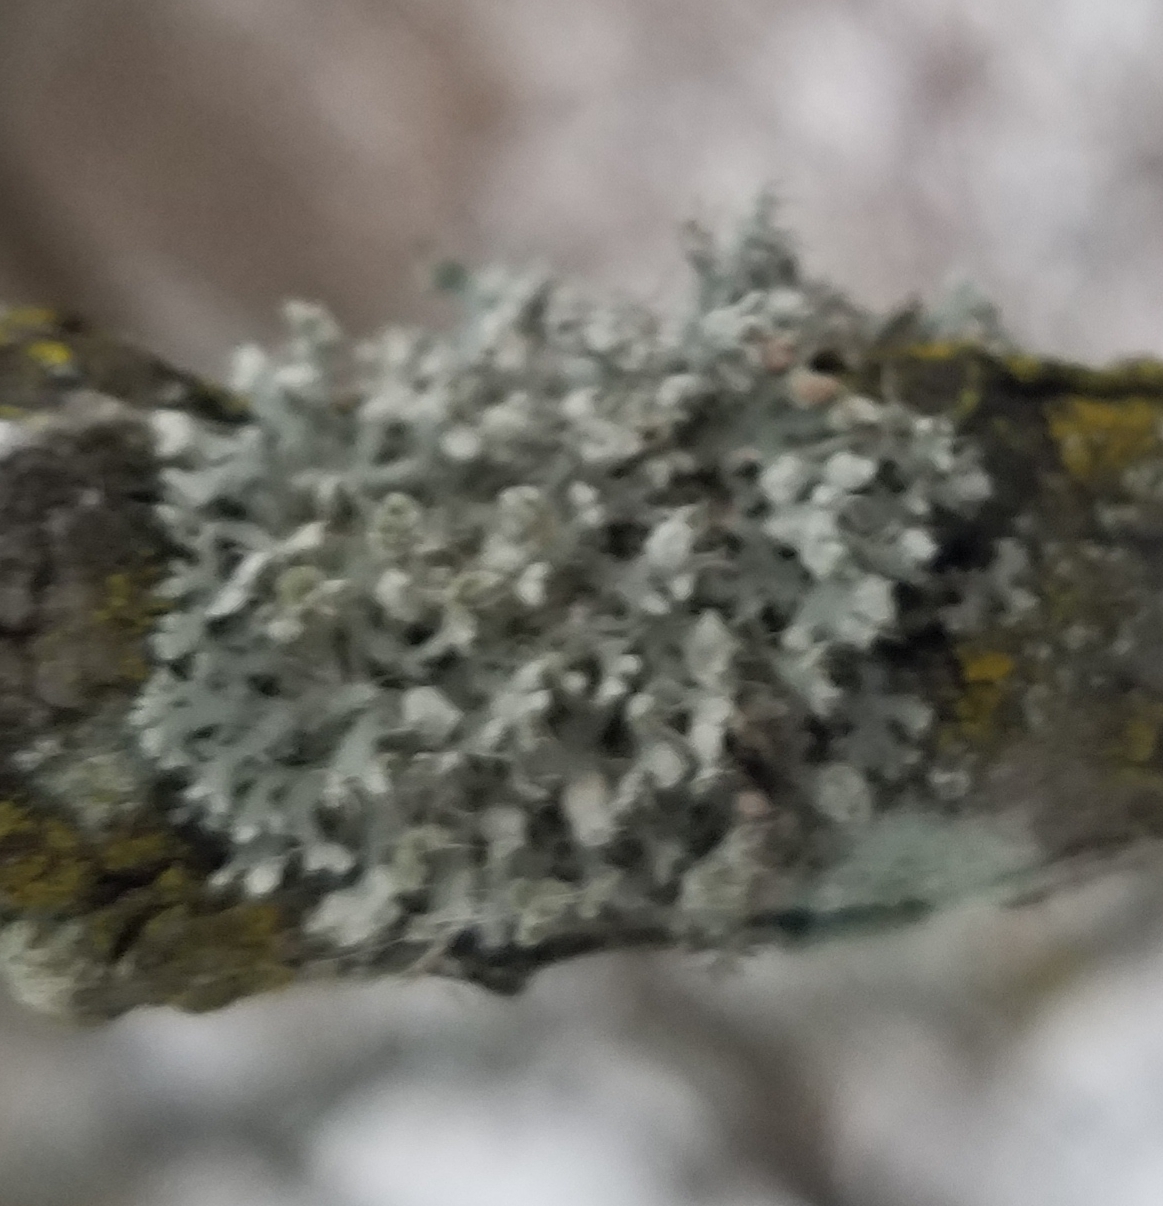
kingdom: Fungi
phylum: Ascomycota
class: Lecanoromycetes
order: Caliciales
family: Physciaceae
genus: Physcia
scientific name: Physcia adscendens
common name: Hooded rosette lichen
